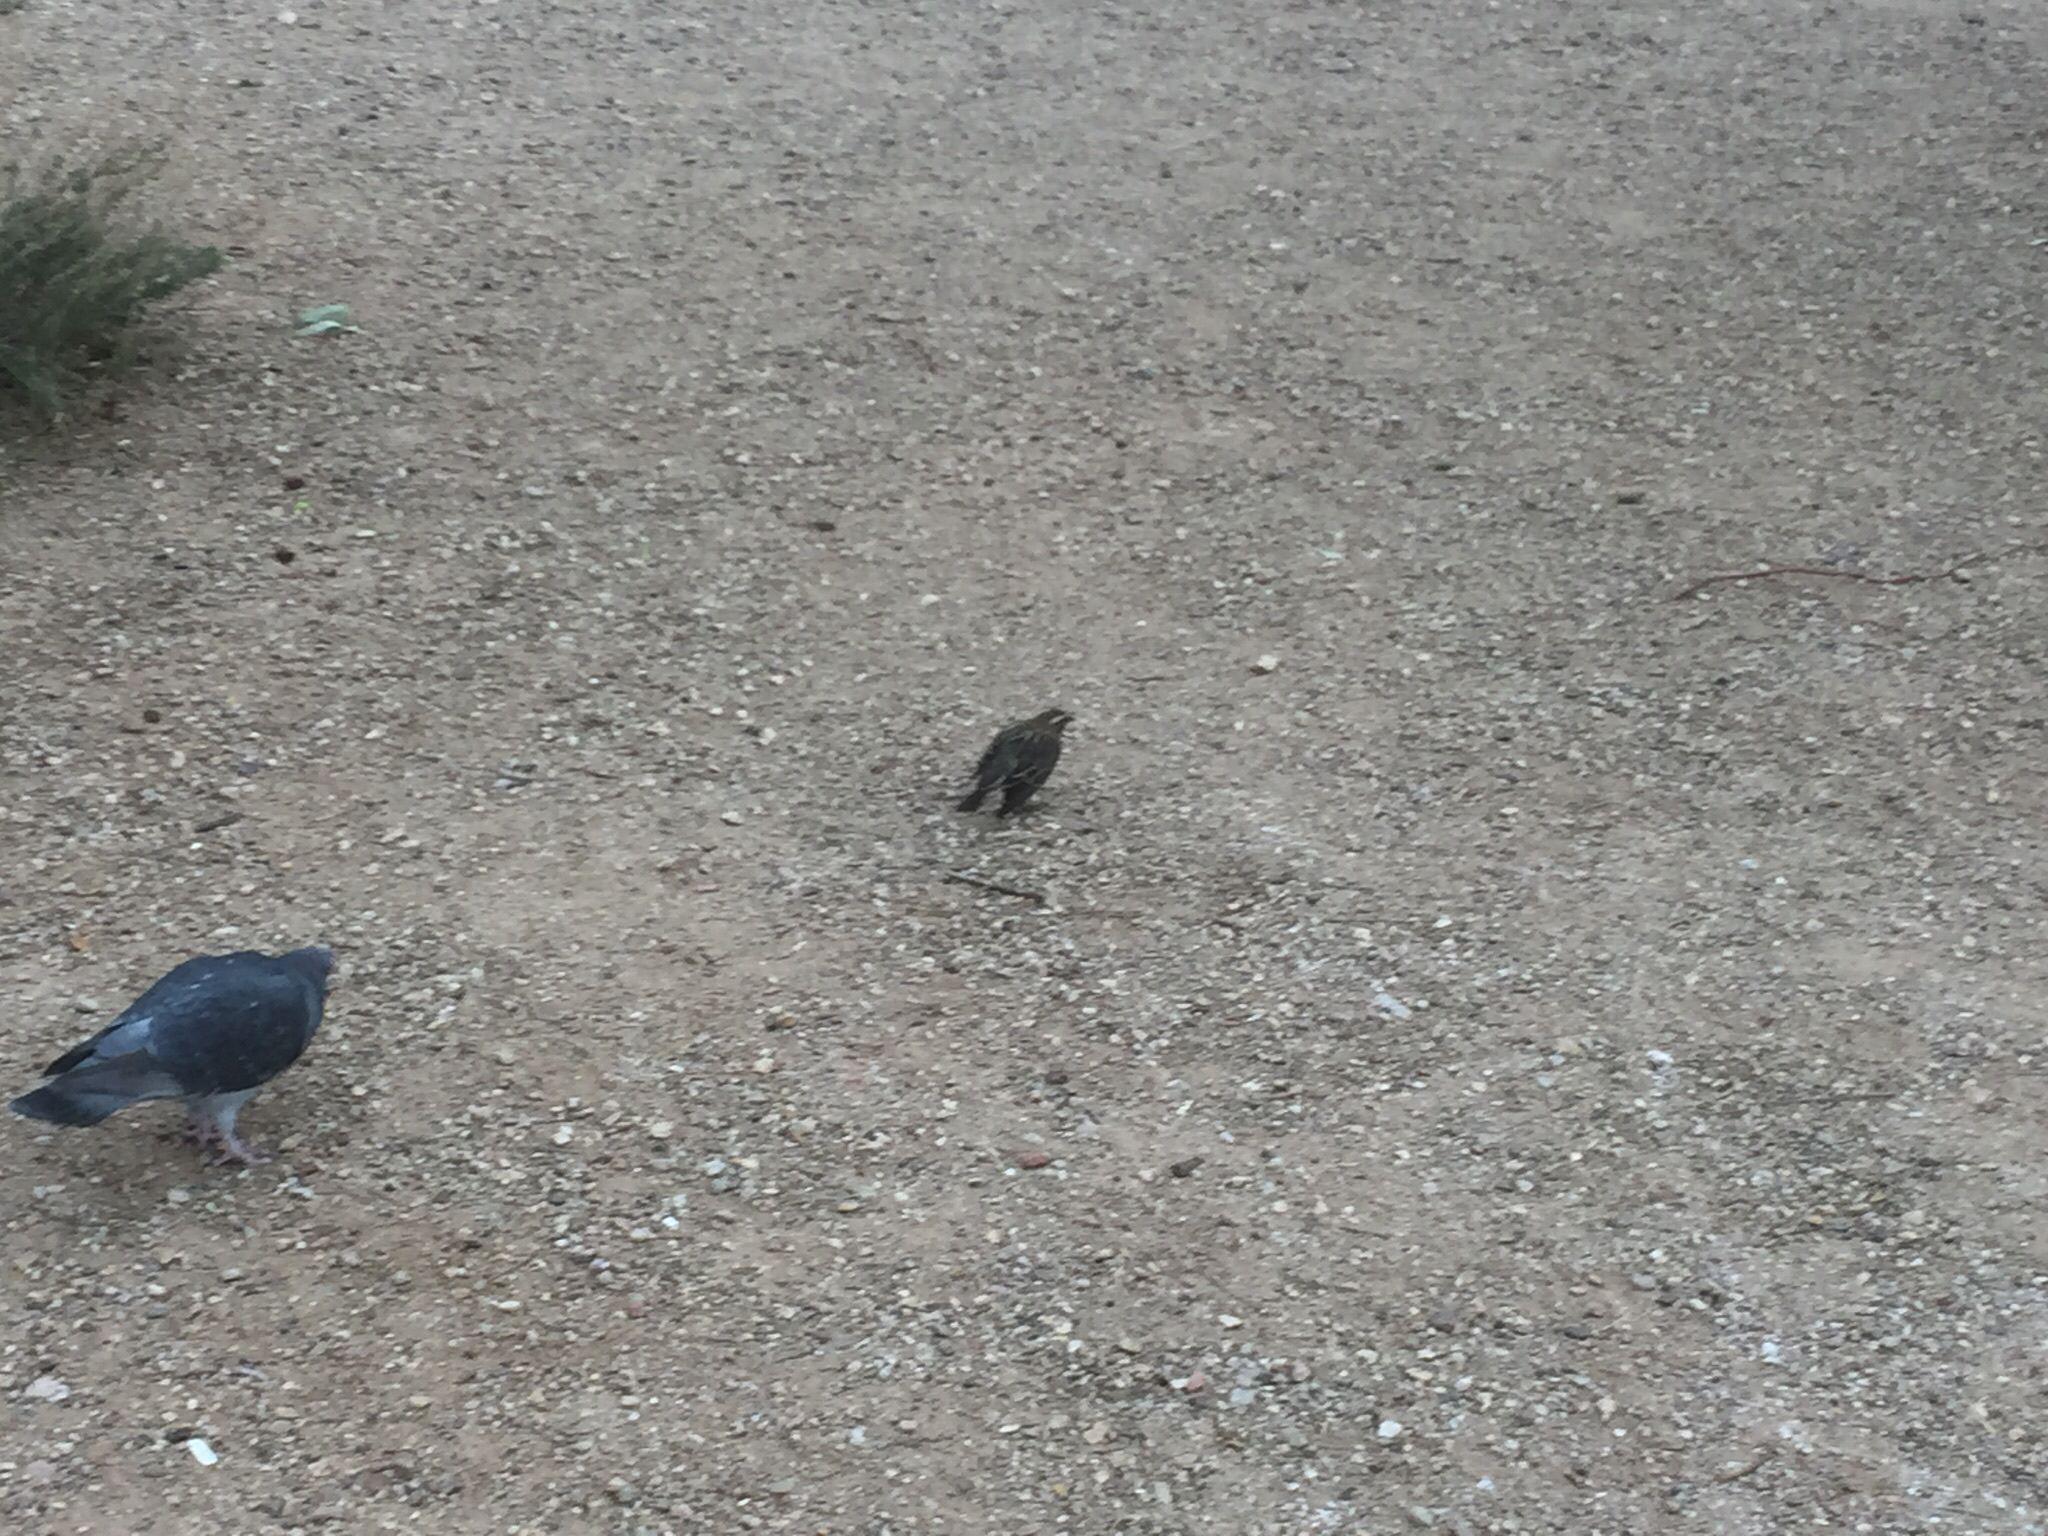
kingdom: Animalia
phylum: Chordata
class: Aves
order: Passeriformes
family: Icteridae
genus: Agelaius
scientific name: Agelaius phoeniceus
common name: Red-winged blackbird
